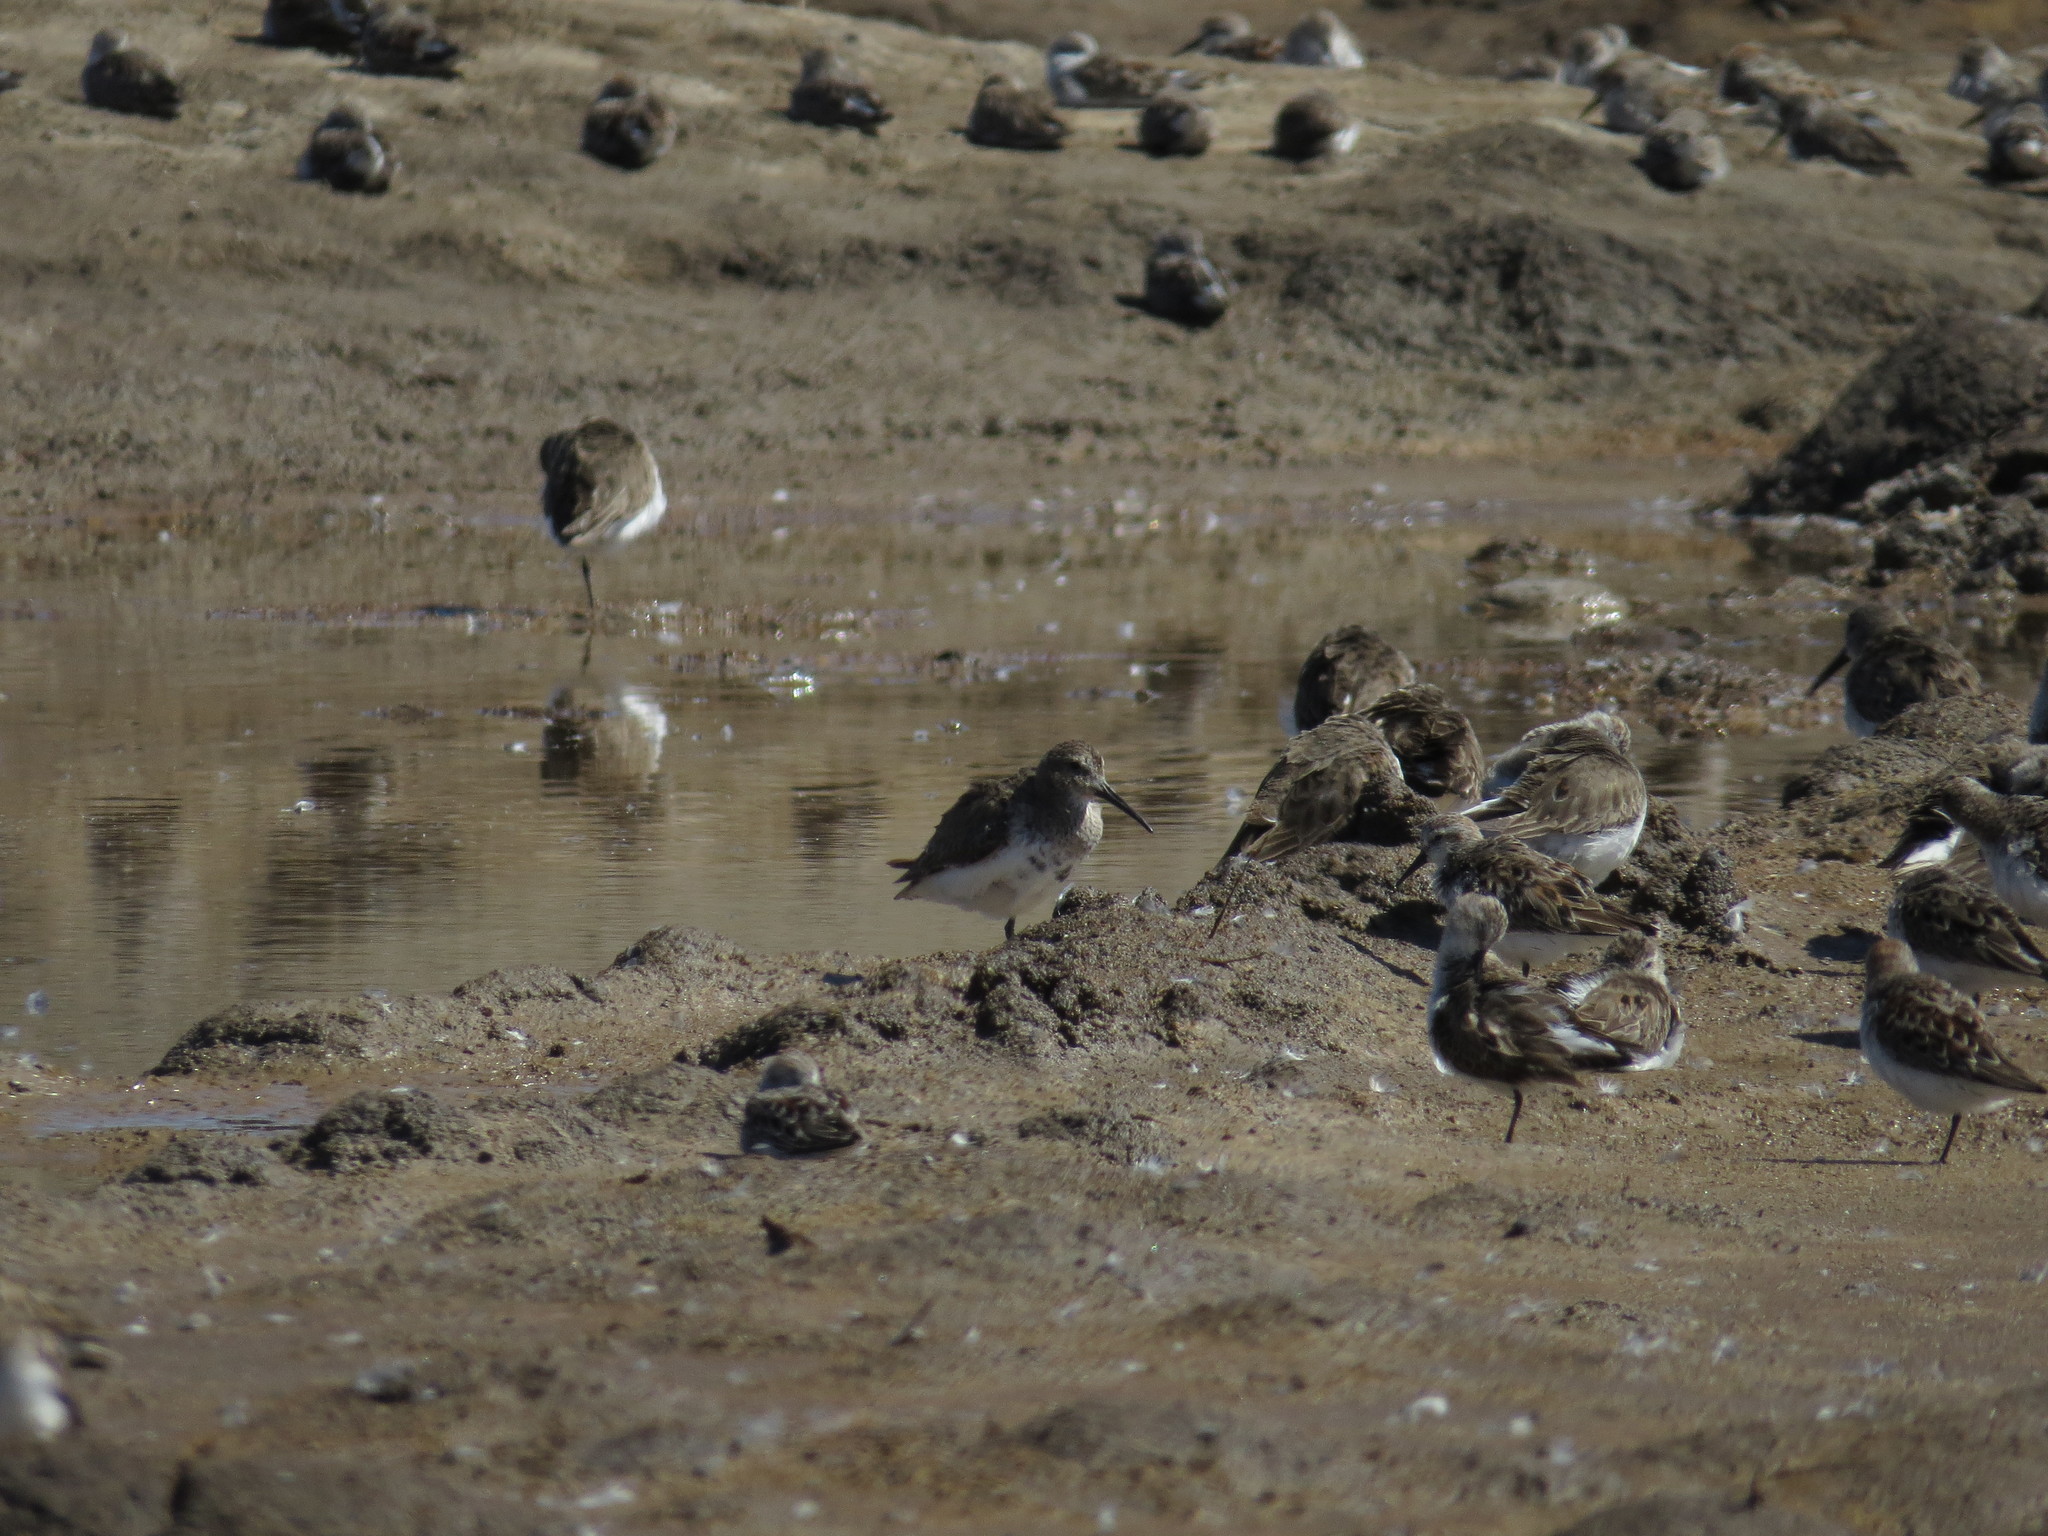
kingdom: Animalia
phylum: Chordata
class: Aves
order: Charadriiformes
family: Scolopacidae
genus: Calidris
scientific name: Calidris alpina
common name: Dunlin
